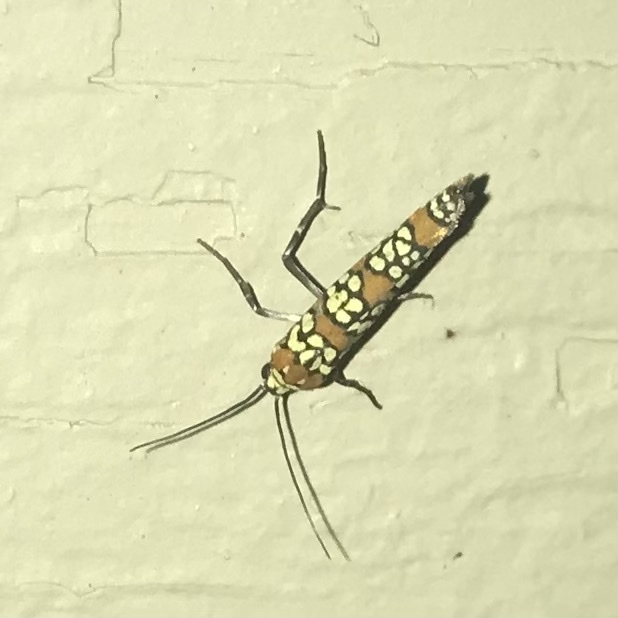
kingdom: Animalia
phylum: Arthropoda
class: Insecta
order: Lepidoptera
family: Attevidae
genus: Atteva
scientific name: Atteva punctella
